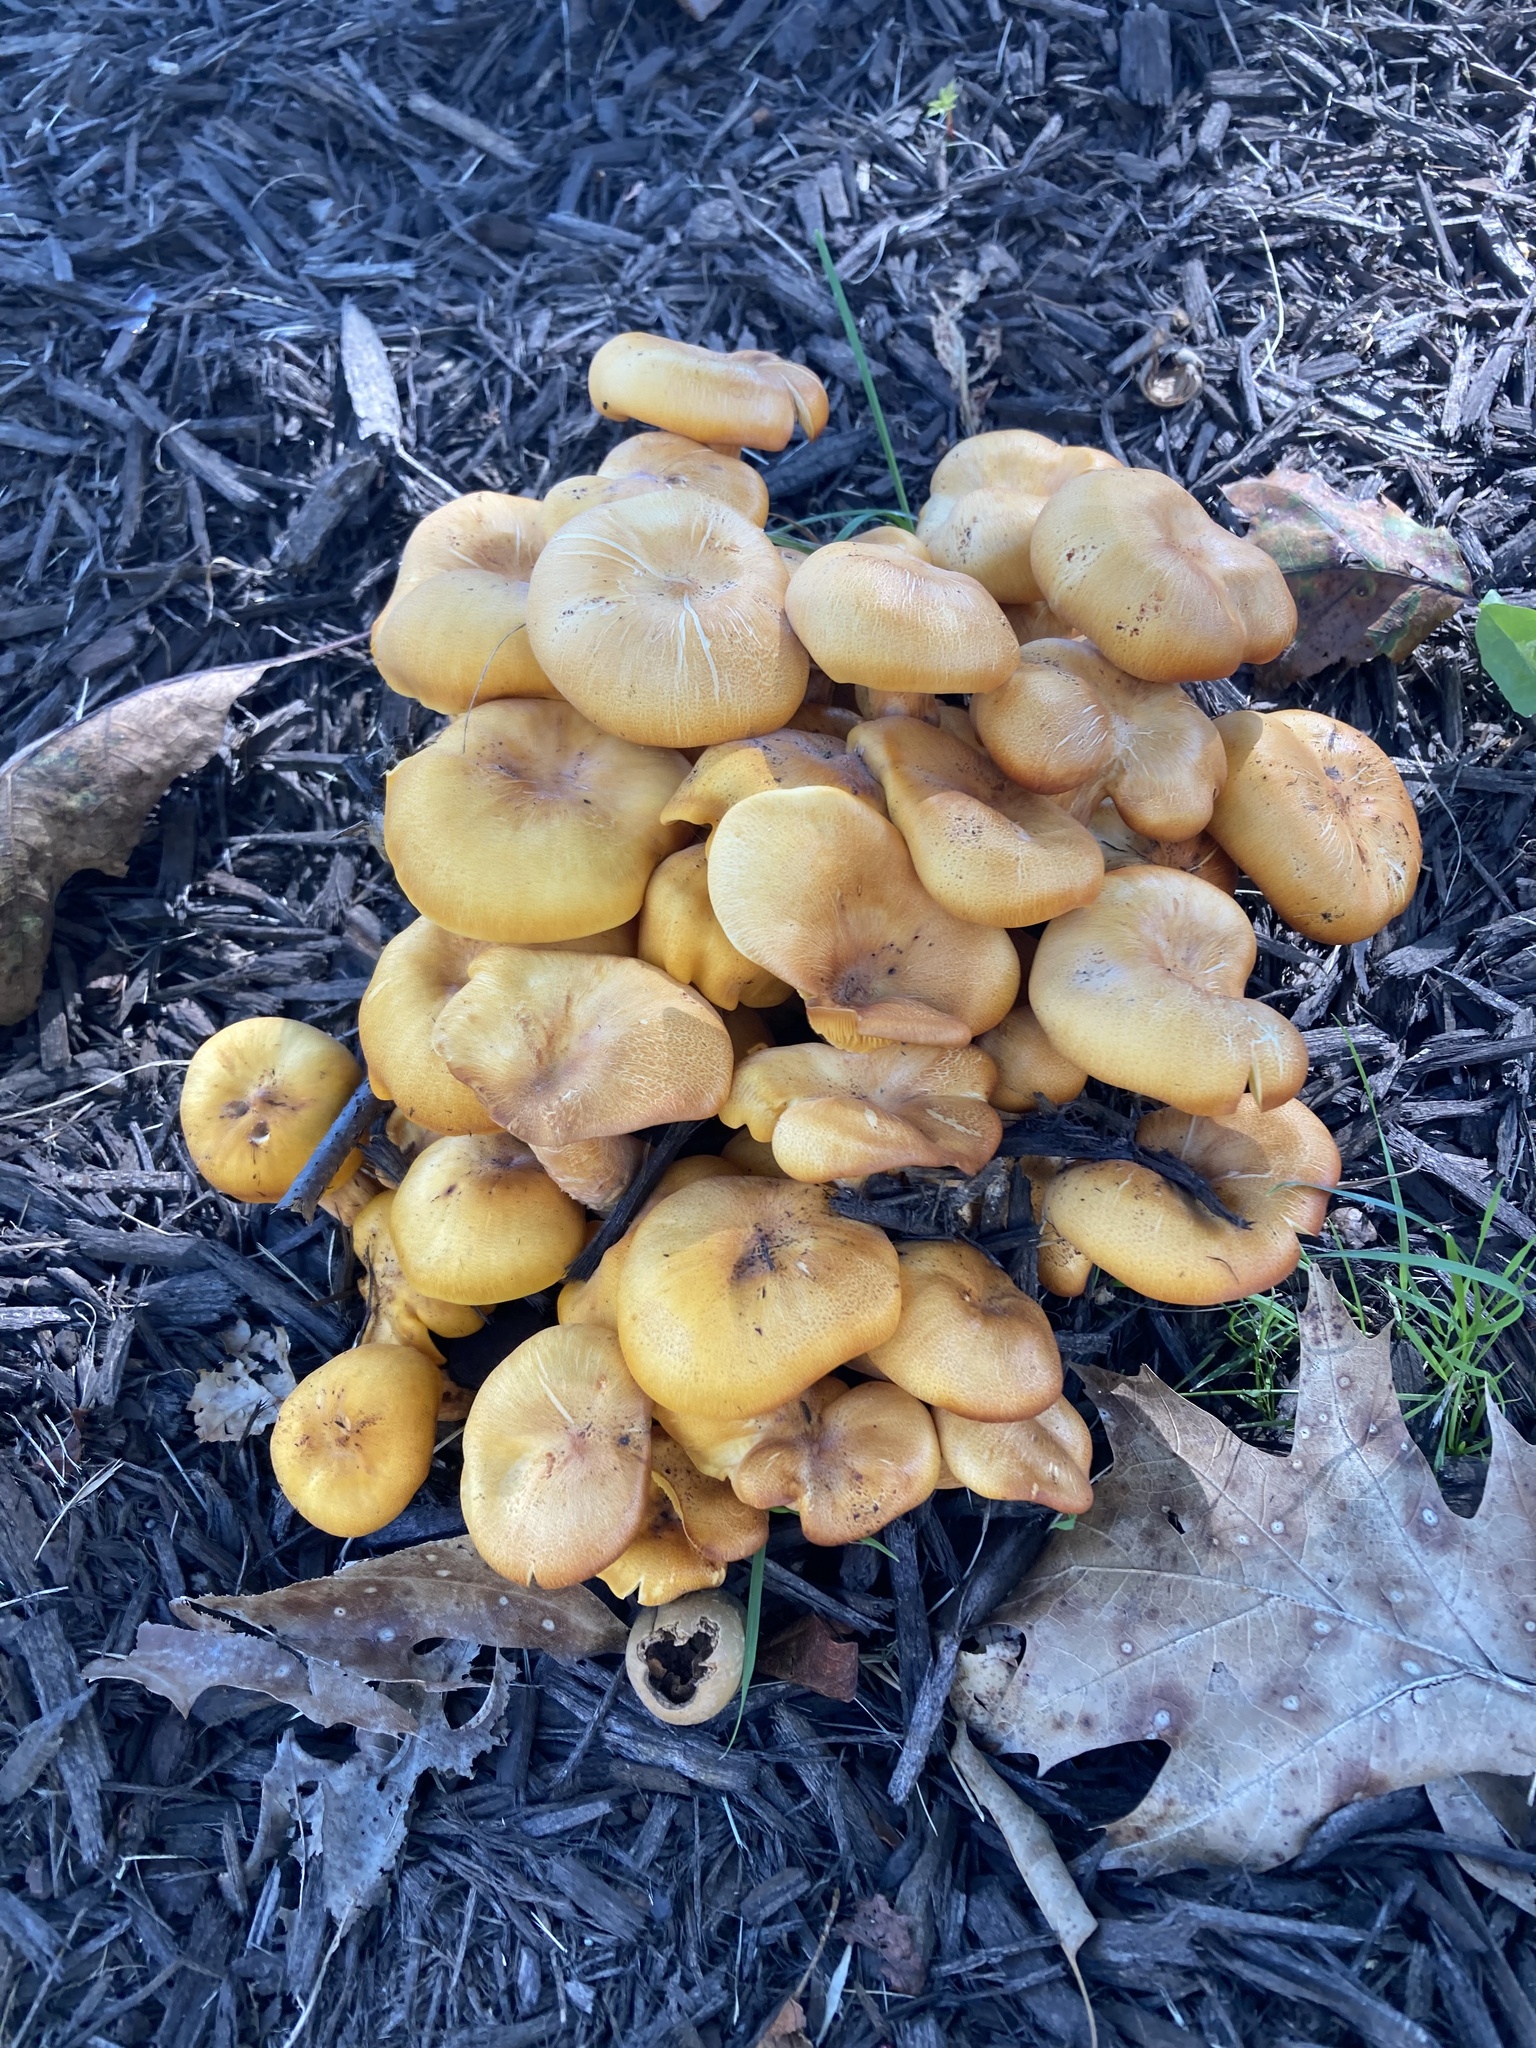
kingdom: Fungi
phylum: Basidiomycota
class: Agaricomycetes
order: Agaricales
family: Omphalotaceae
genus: Omphalotus
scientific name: Omphalotus illudens
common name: Jack o lantern
